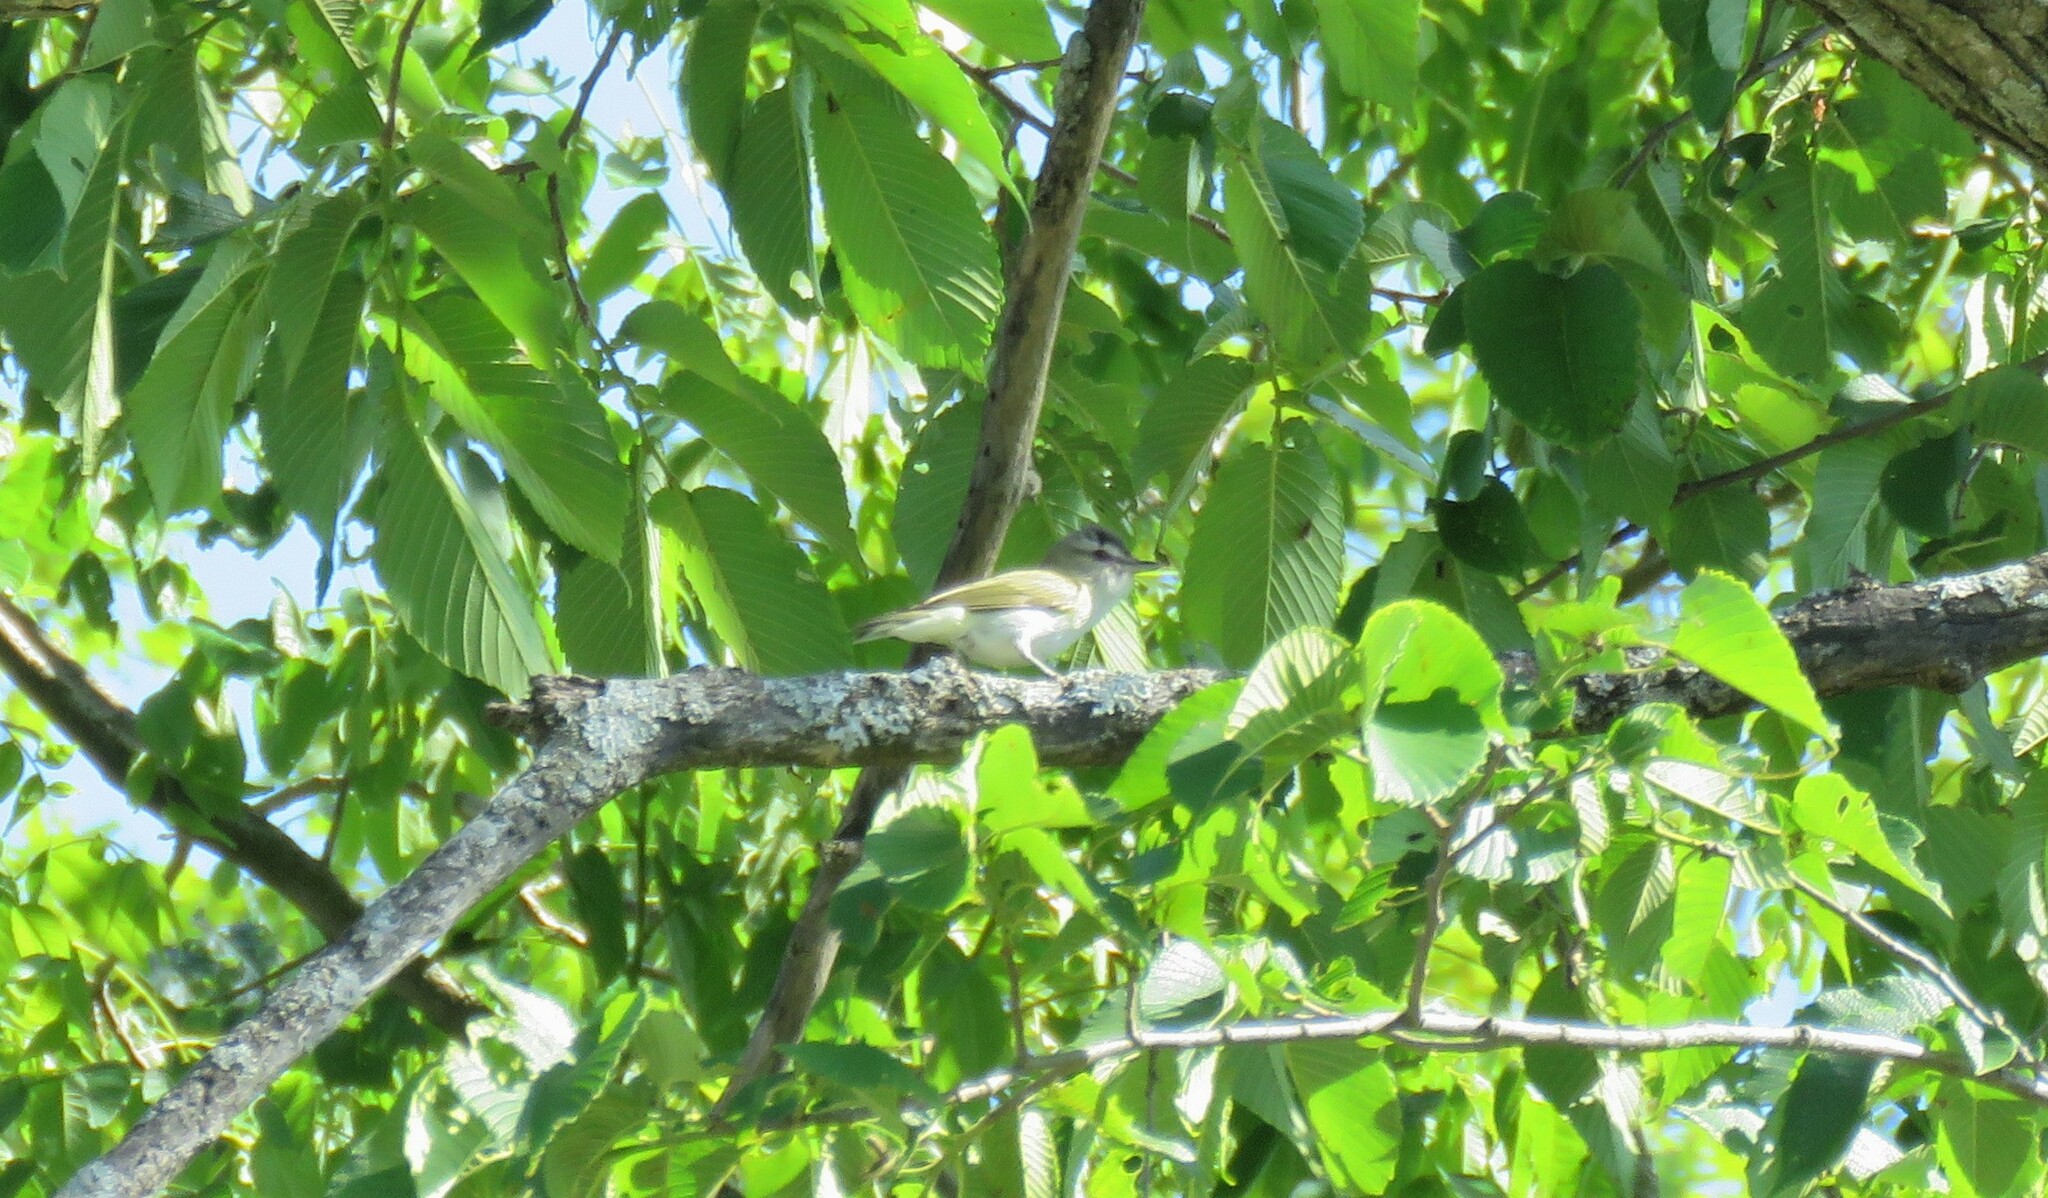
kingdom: Animalia
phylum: Chordata
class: Aves
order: Passeriformes
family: Vireonidae
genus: Vireo
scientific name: Vireo olivaceus
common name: Red-eyed vireo
